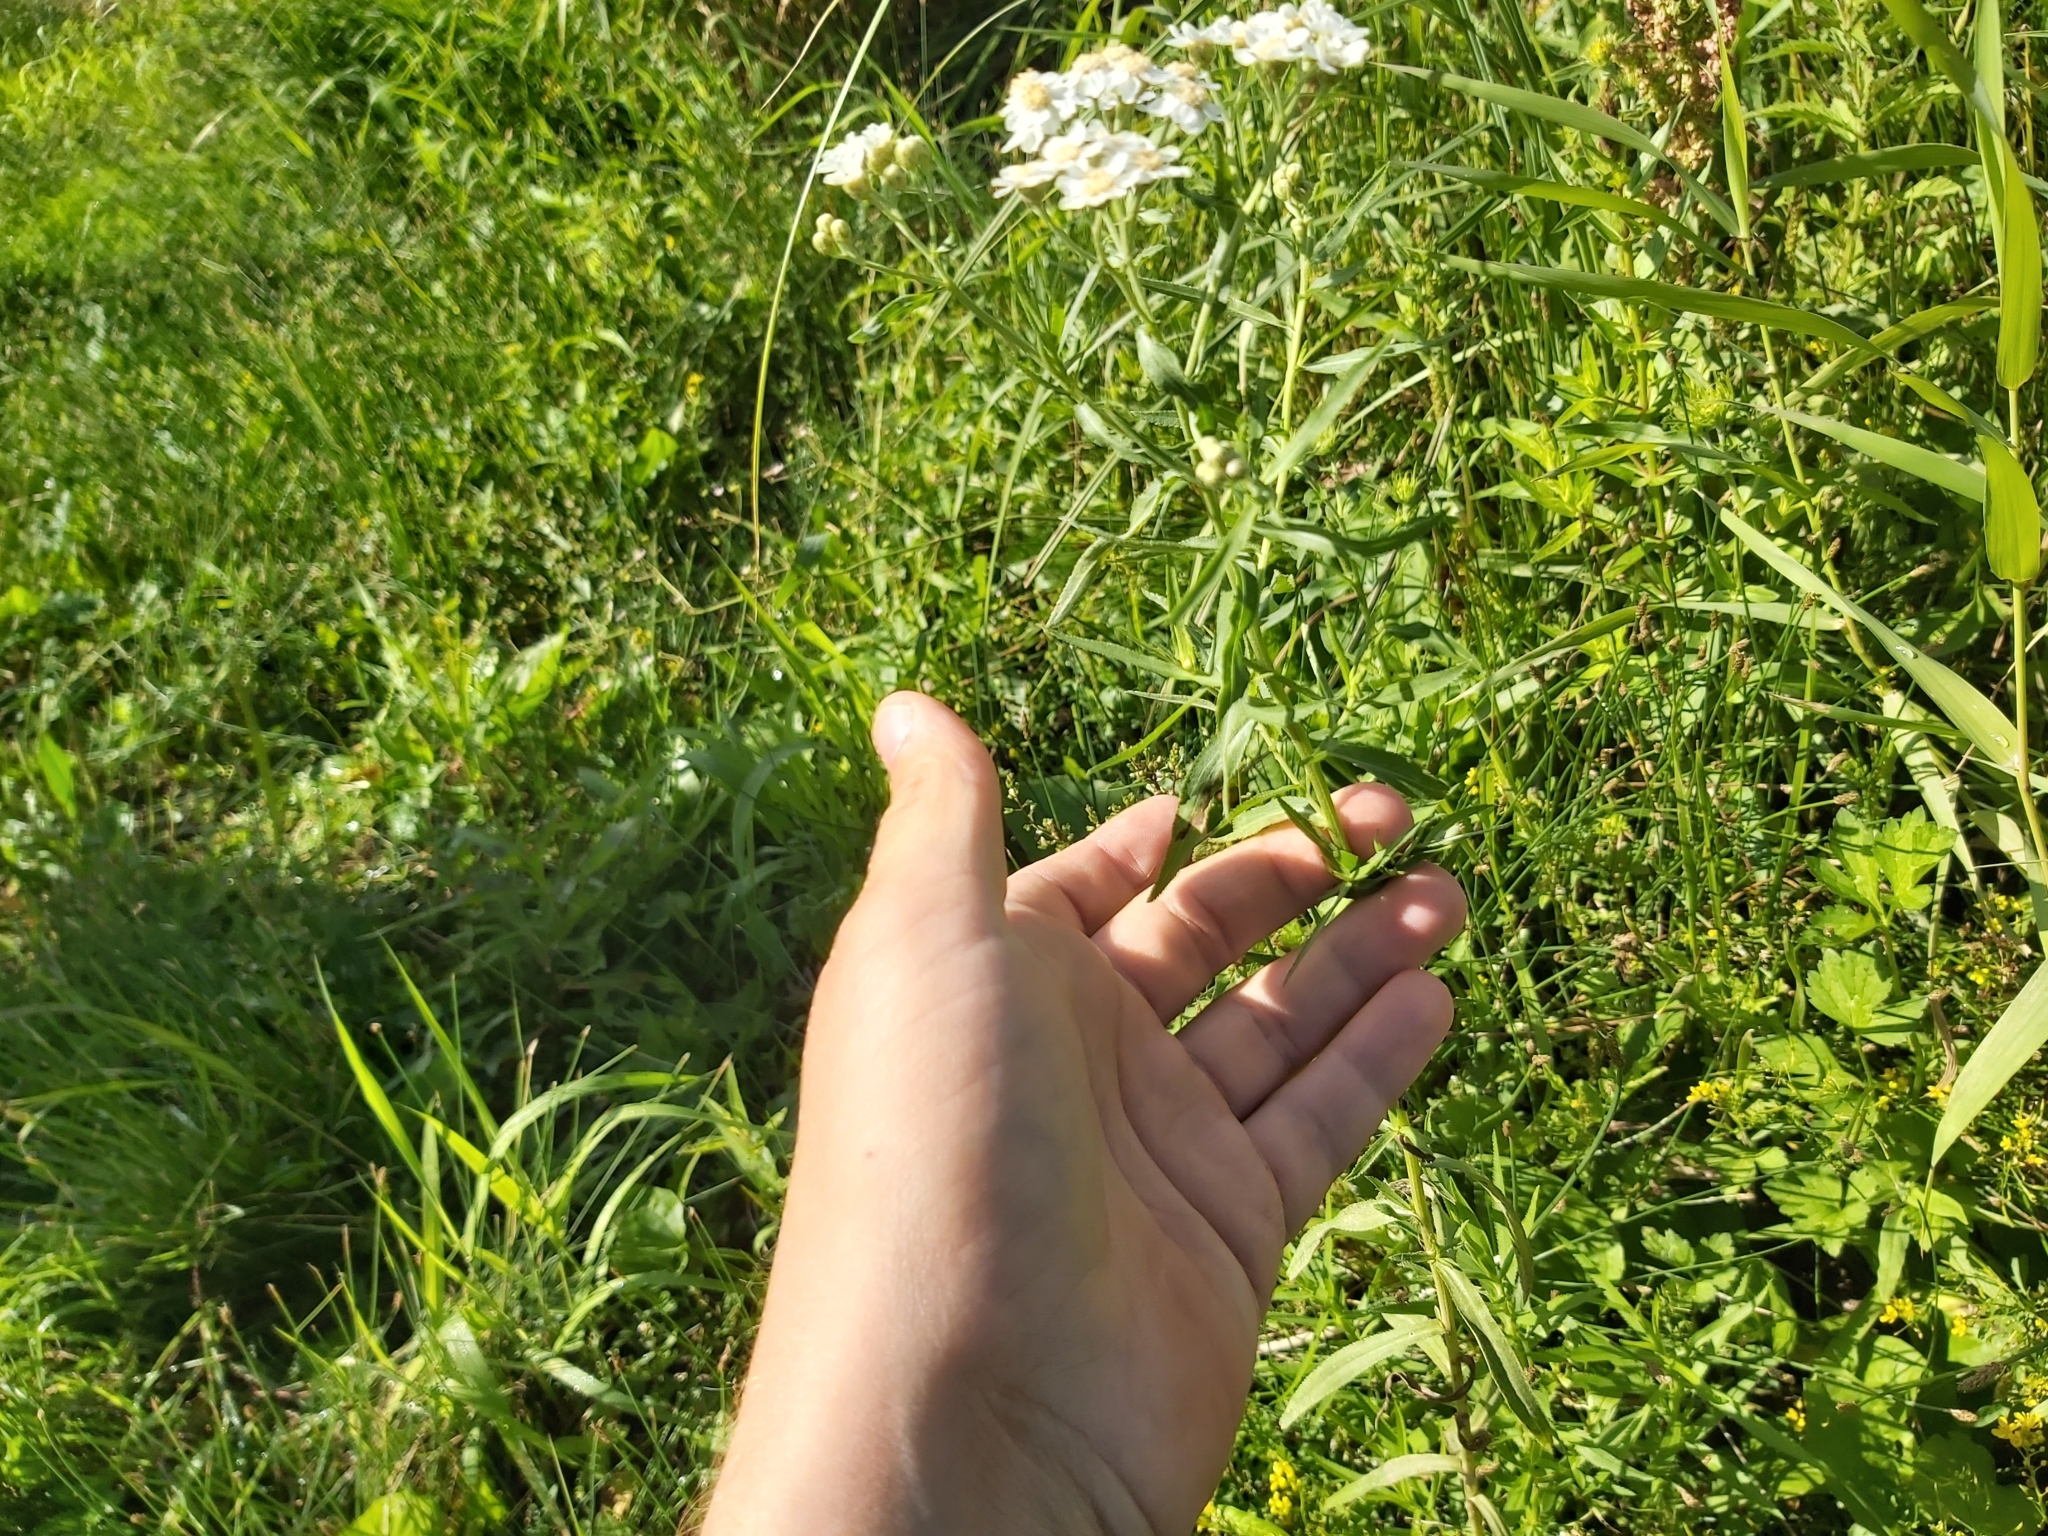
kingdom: Plantae
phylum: Tracheophyta
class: Magnoliopsida
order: Asterales
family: Asteraceae
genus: Achillea
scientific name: Achillea salicifolia
